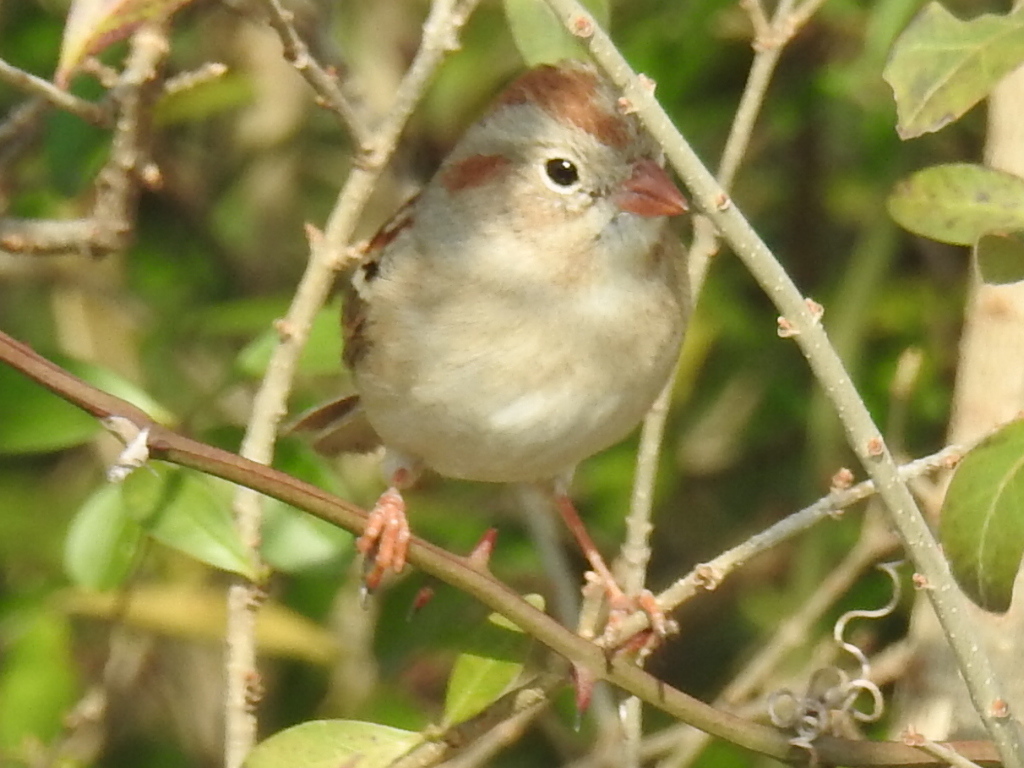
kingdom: Animalia
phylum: Chordata
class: Aves
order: Passeriformes
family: Passerellidae
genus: Spizella
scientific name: Spizella pusilla
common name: Field sparrow
